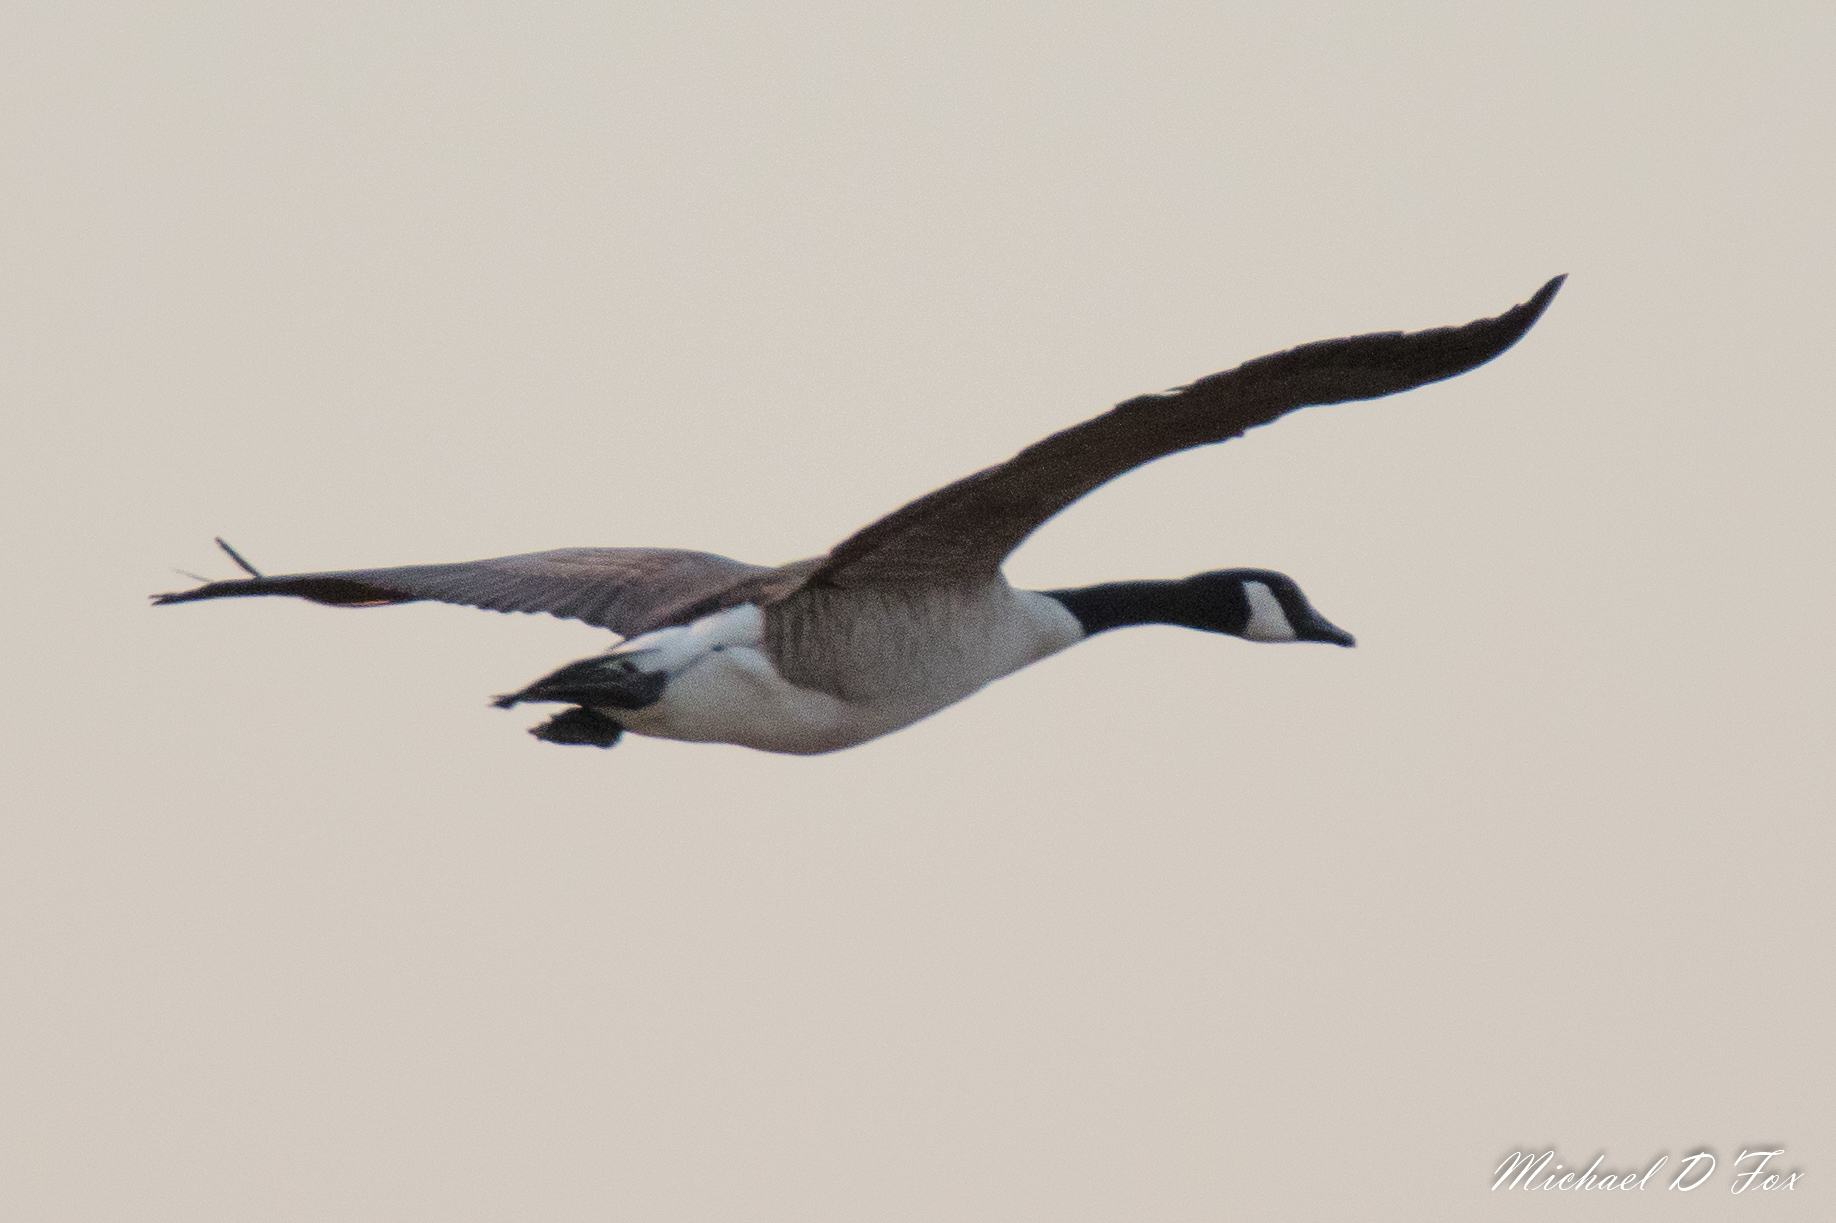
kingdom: Animalia
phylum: Chordata
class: Aves
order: Anseriformes
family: Anatidae
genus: Branta
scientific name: Branta canadensis
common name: Canada goose
